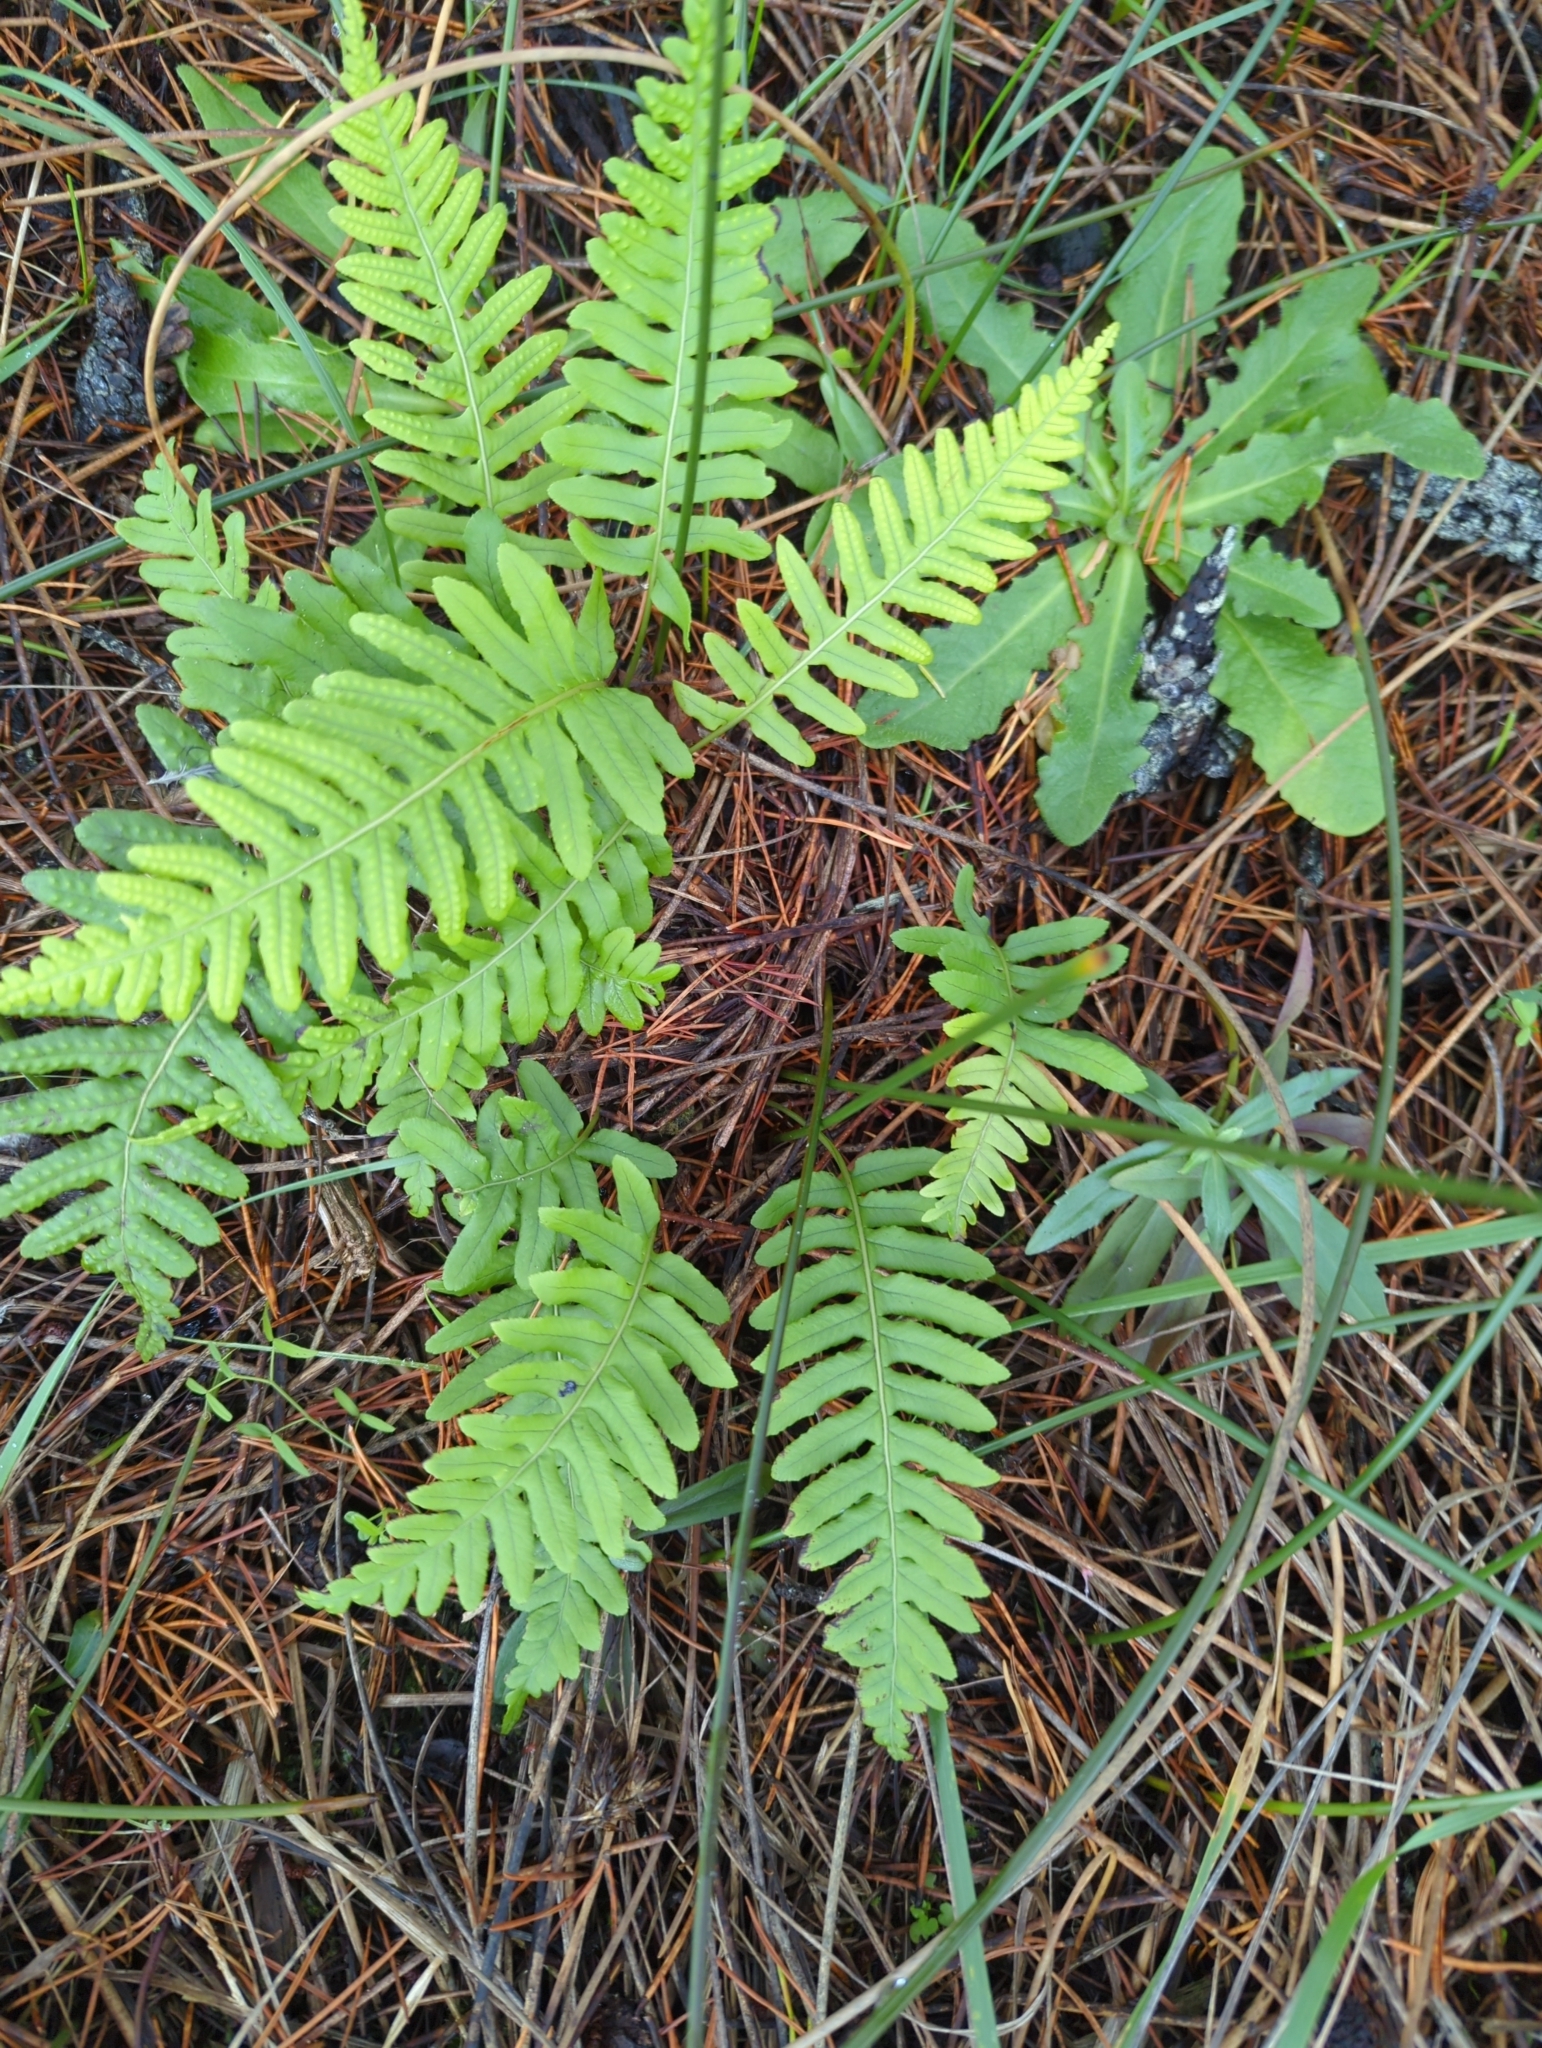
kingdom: Plantae
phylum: Tracheophyta
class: Polypodiopsida
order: Polypodiales
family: Polypodiaceae
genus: Polypodium
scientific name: Polypodium glycyrrhiza
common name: Licorice fern
